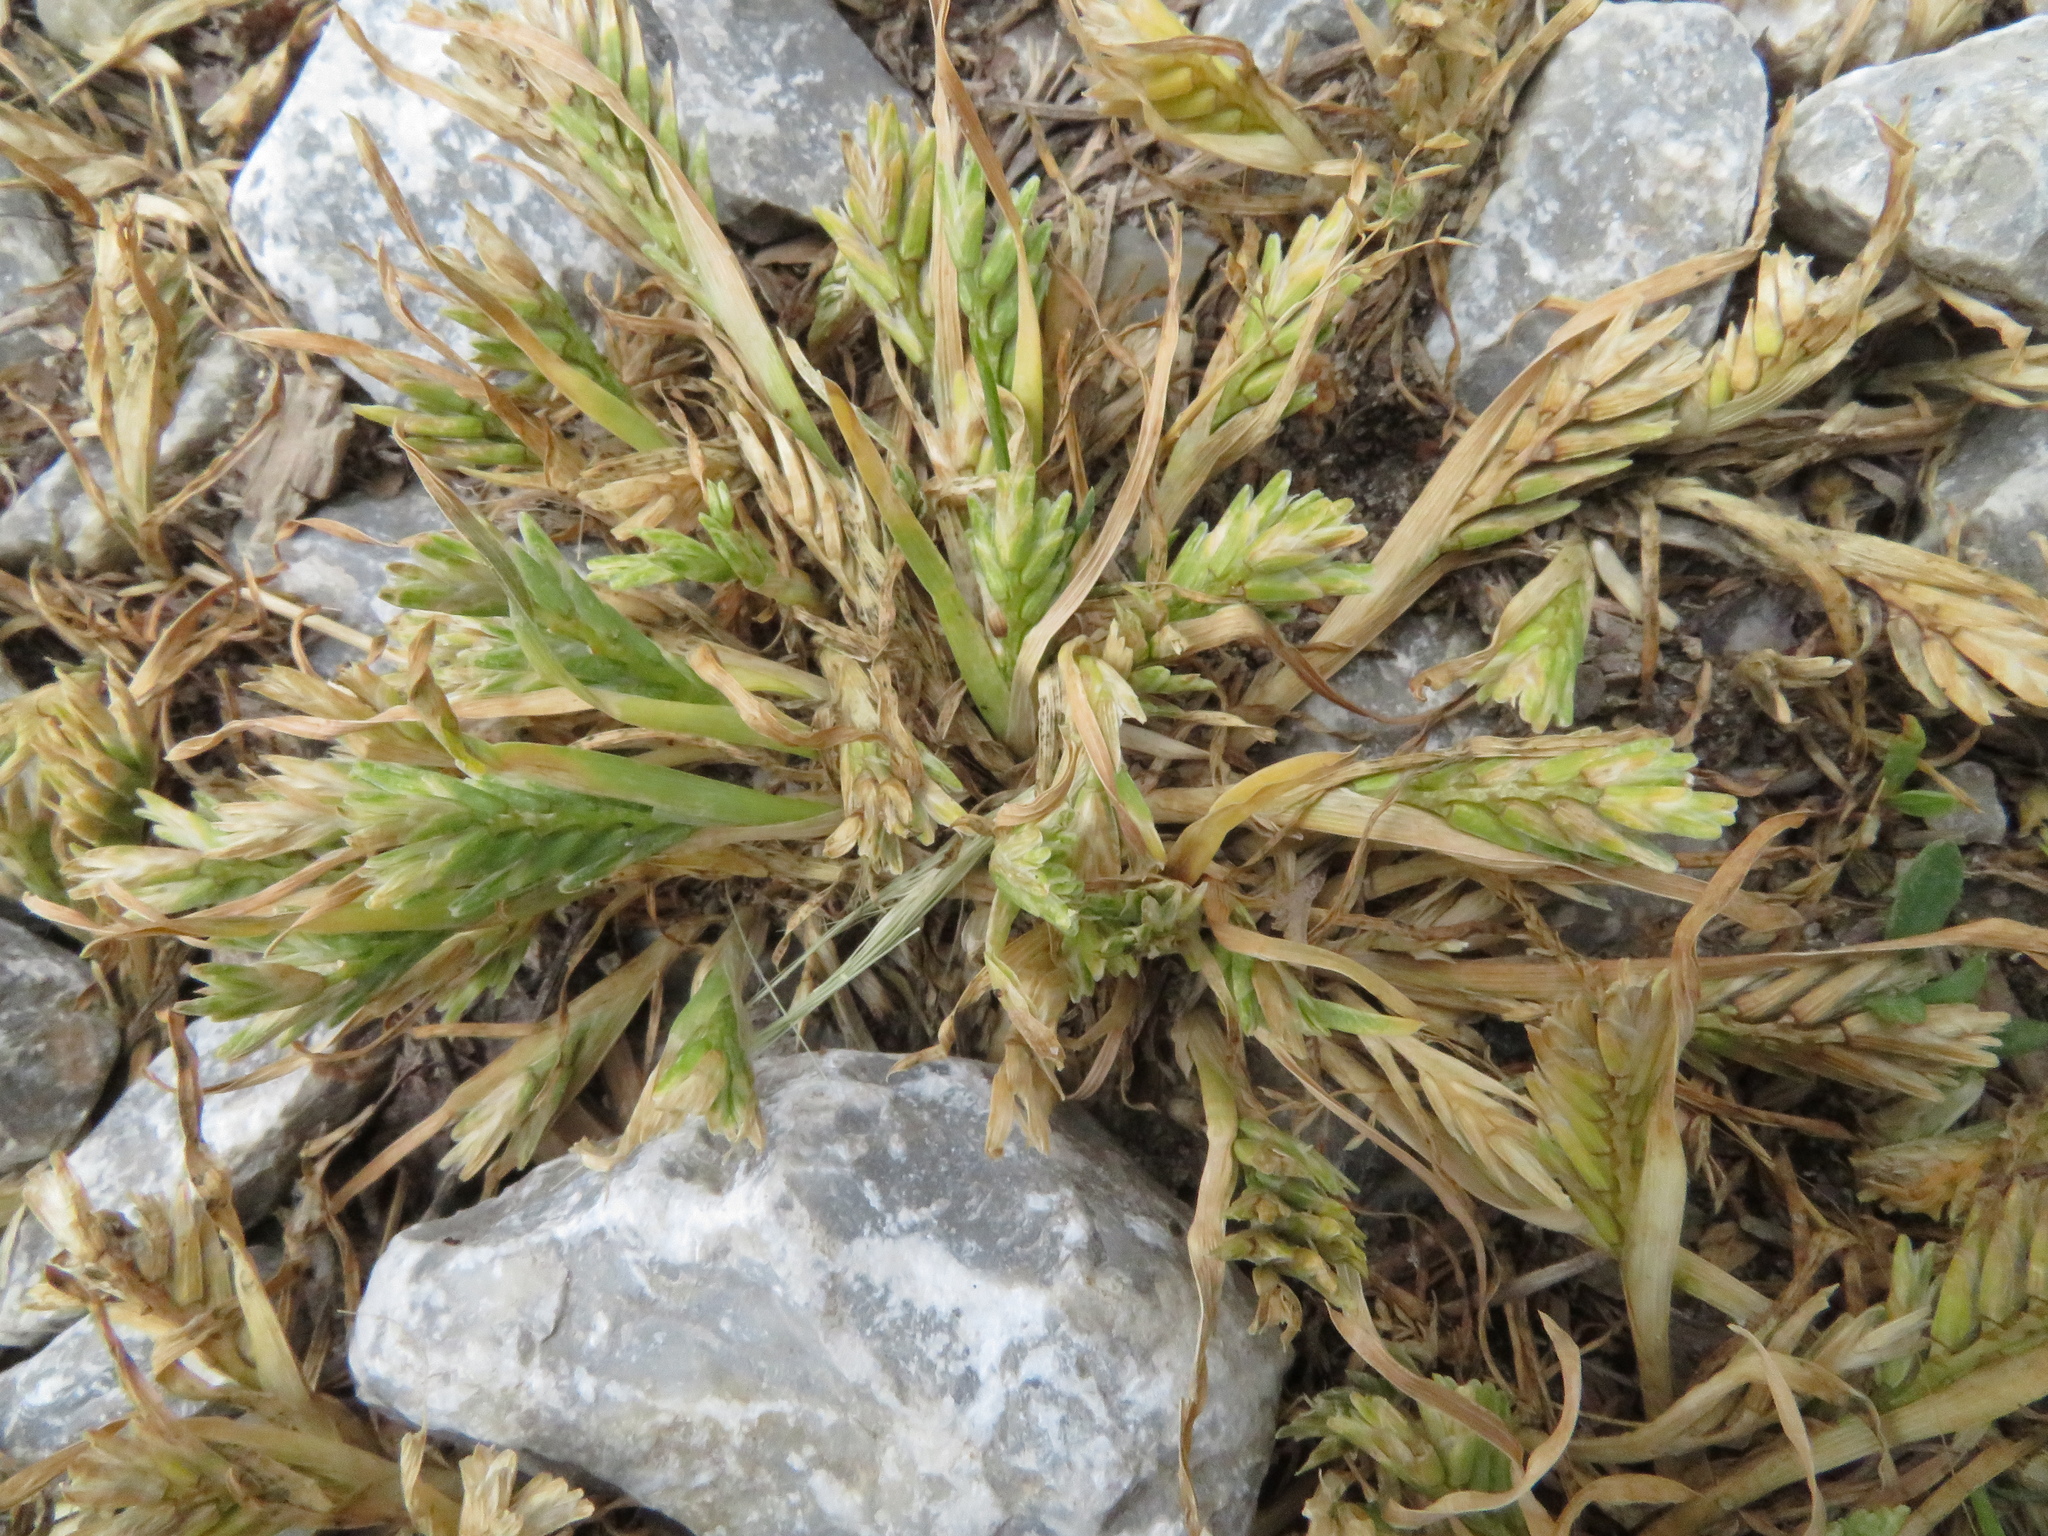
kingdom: Plantae
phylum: Tracheophyta
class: Liliopsida
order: Poales
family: Poaceae
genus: Sclerochloa
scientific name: Sclerochloa dura
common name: Common hardgrass
